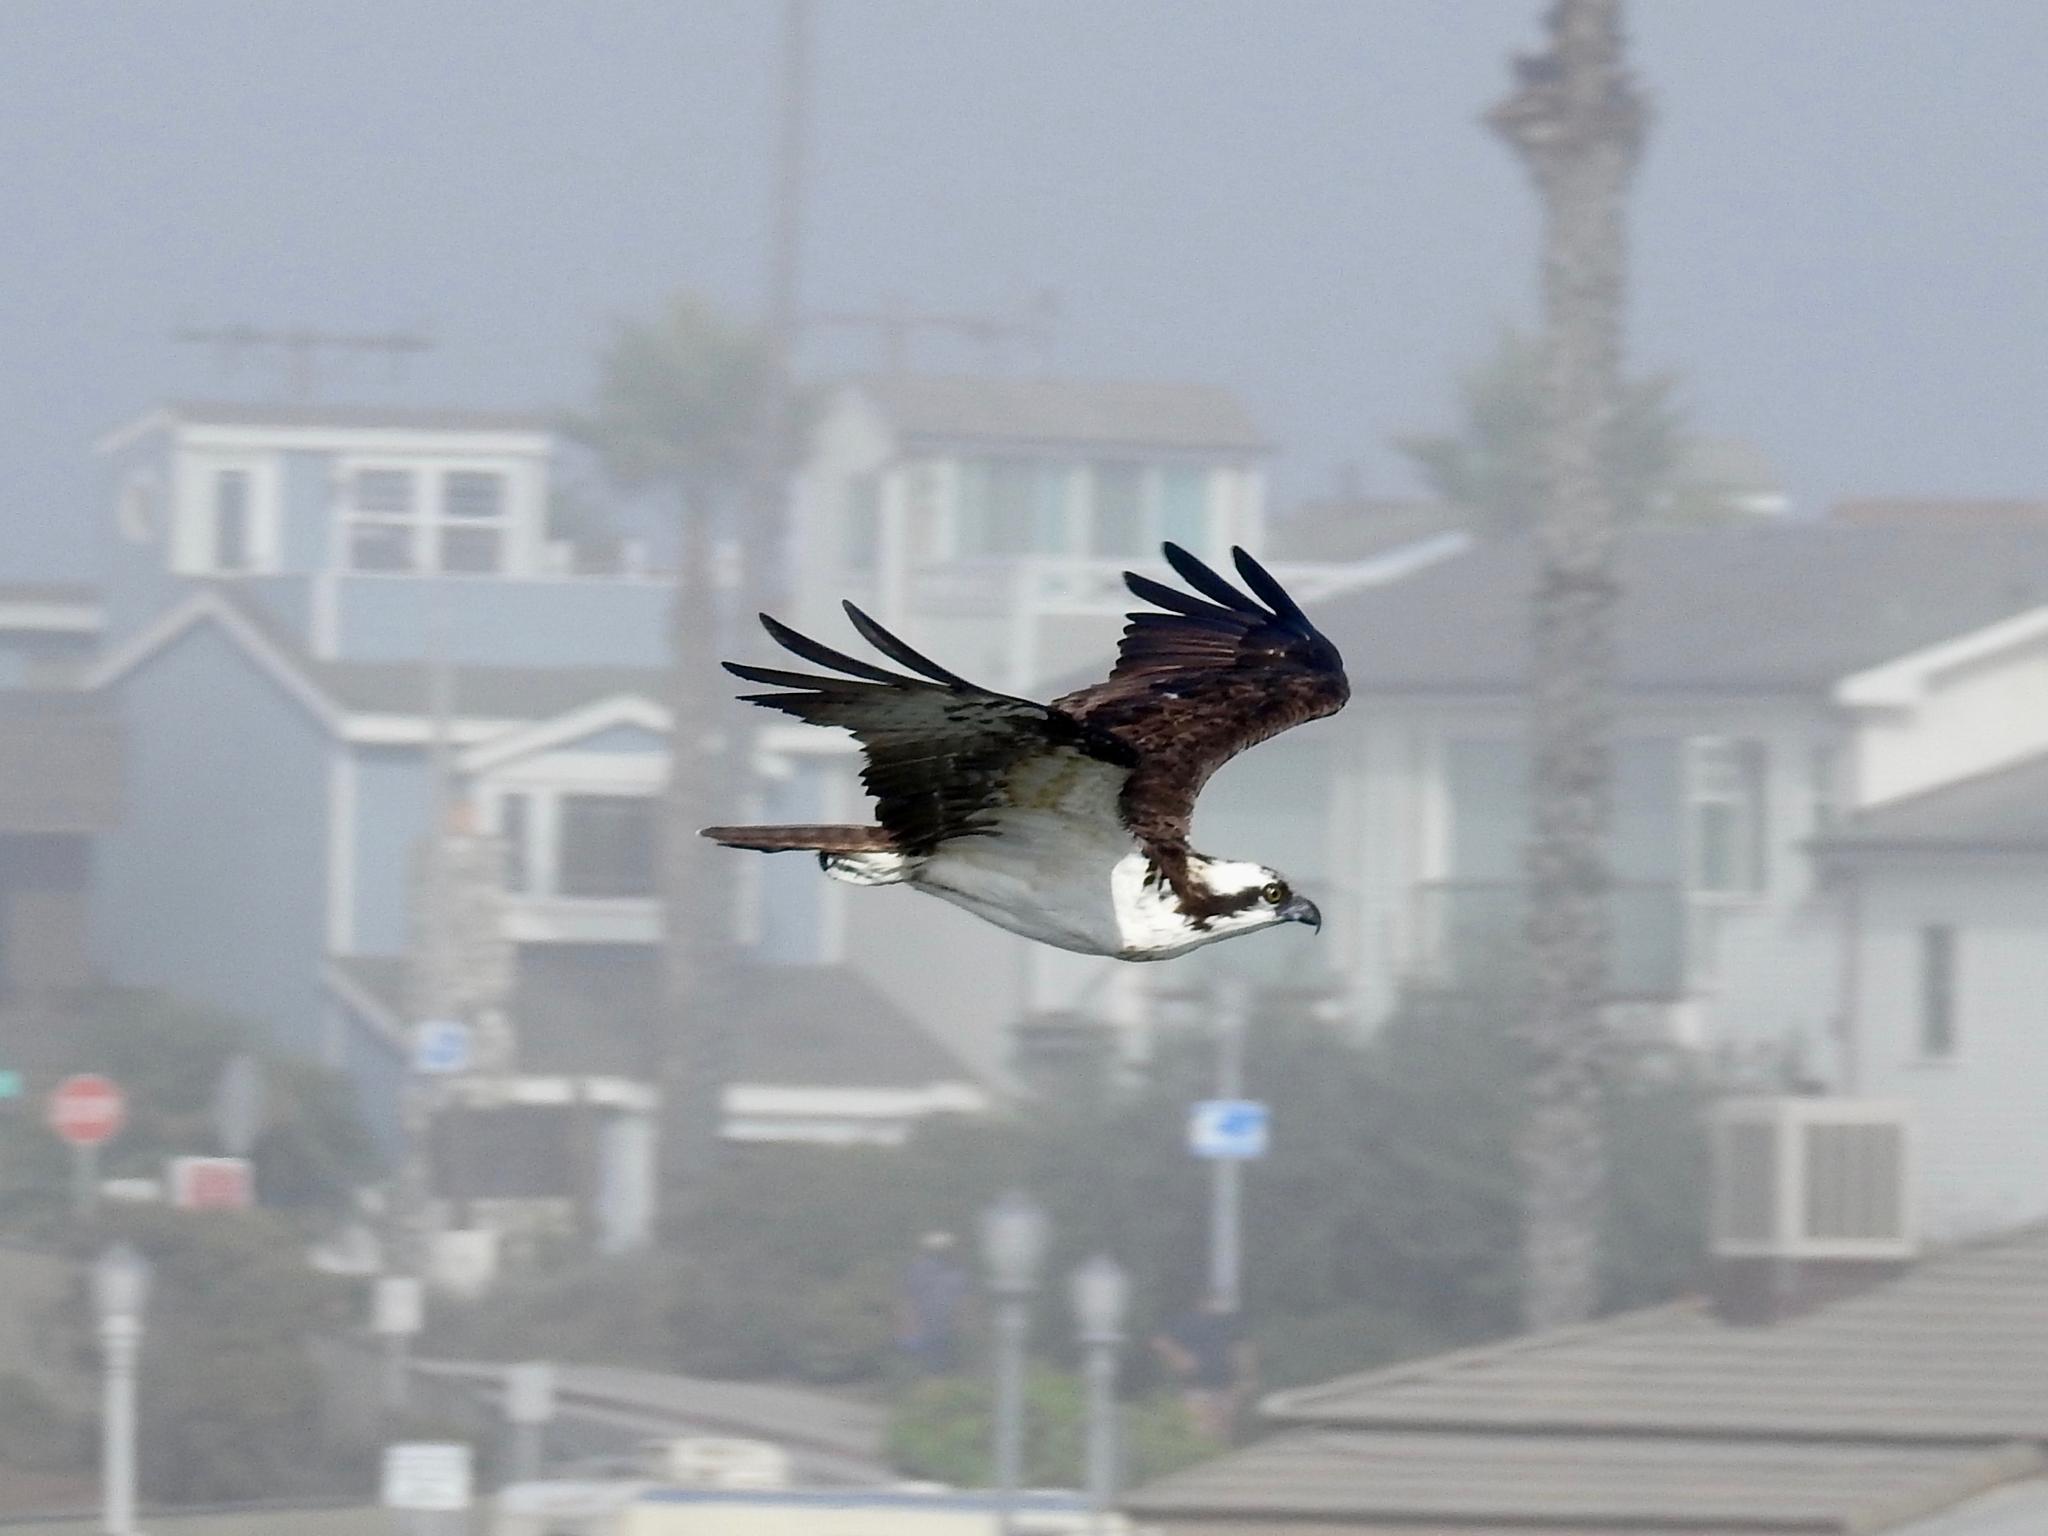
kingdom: Animalia
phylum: Chordata
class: Aves
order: Accipitriformes
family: Pandionidae
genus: Pandion
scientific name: Pandion haliaetus
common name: Osprey
